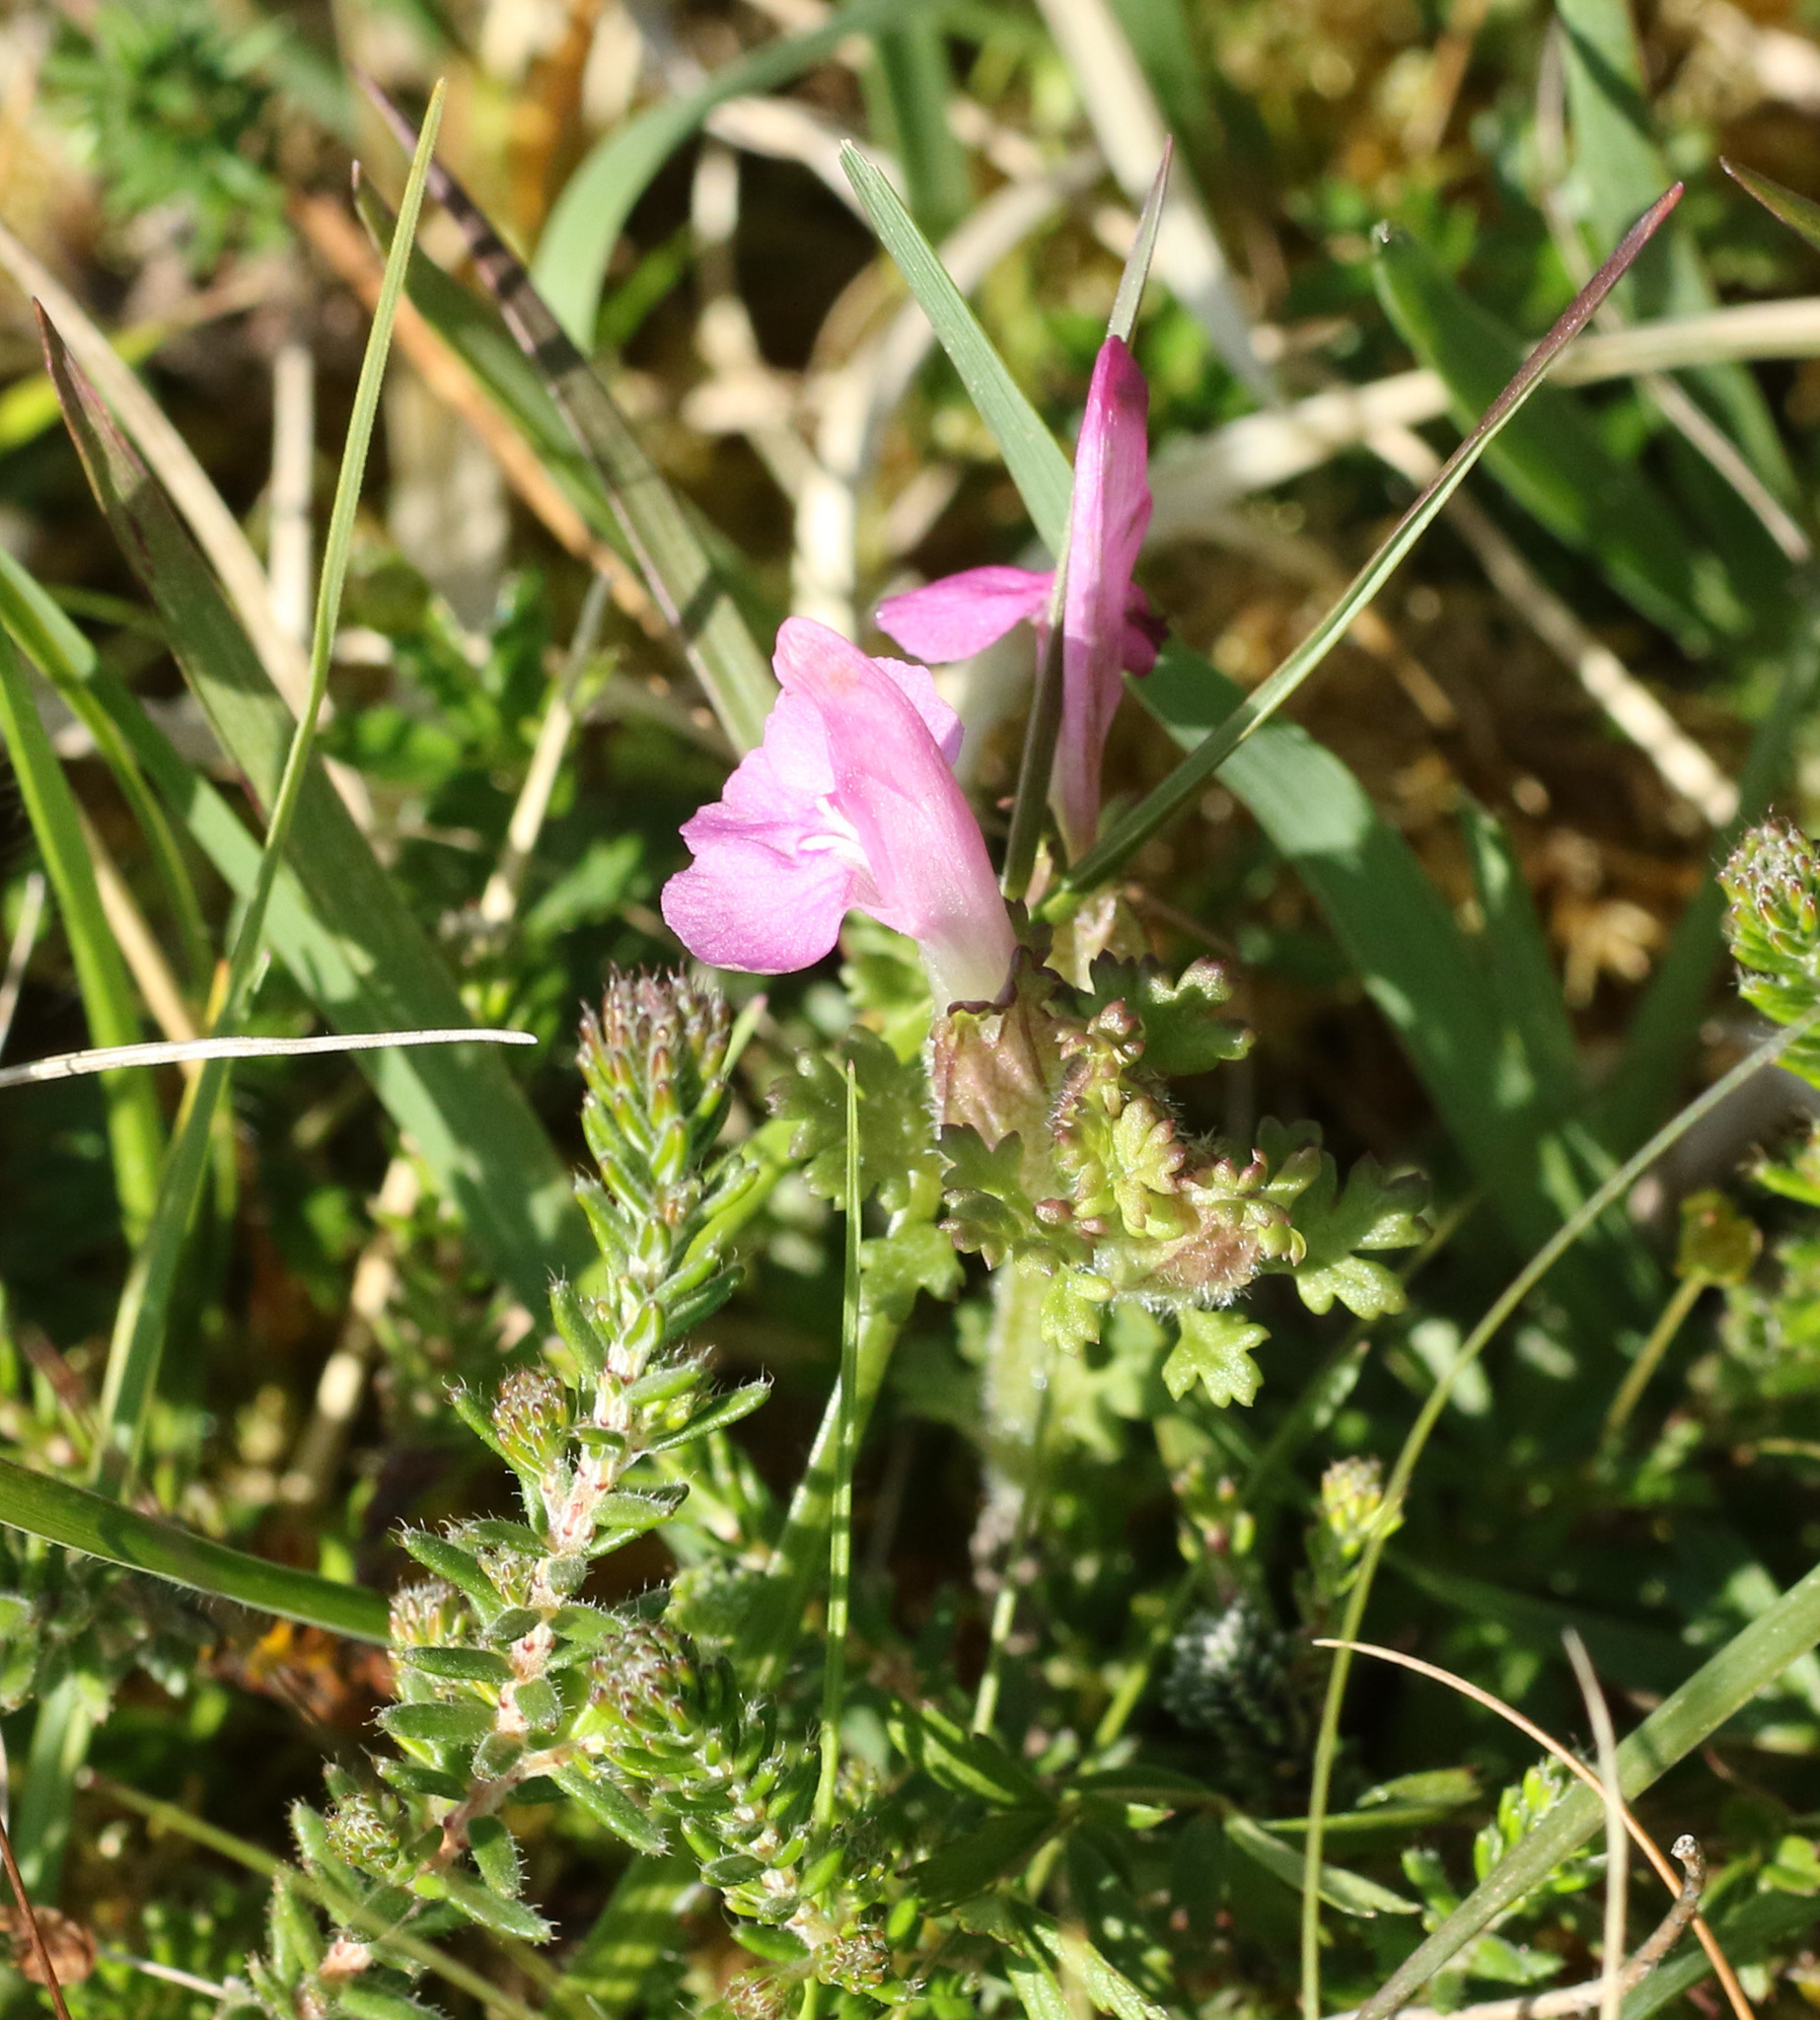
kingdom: Plantae
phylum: Tracheophyta
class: Magnoliopsida
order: Lamiales
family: Orobanchaceae
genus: Pedicularis
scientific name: Pedicularis sylvatica
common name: Lousewort
